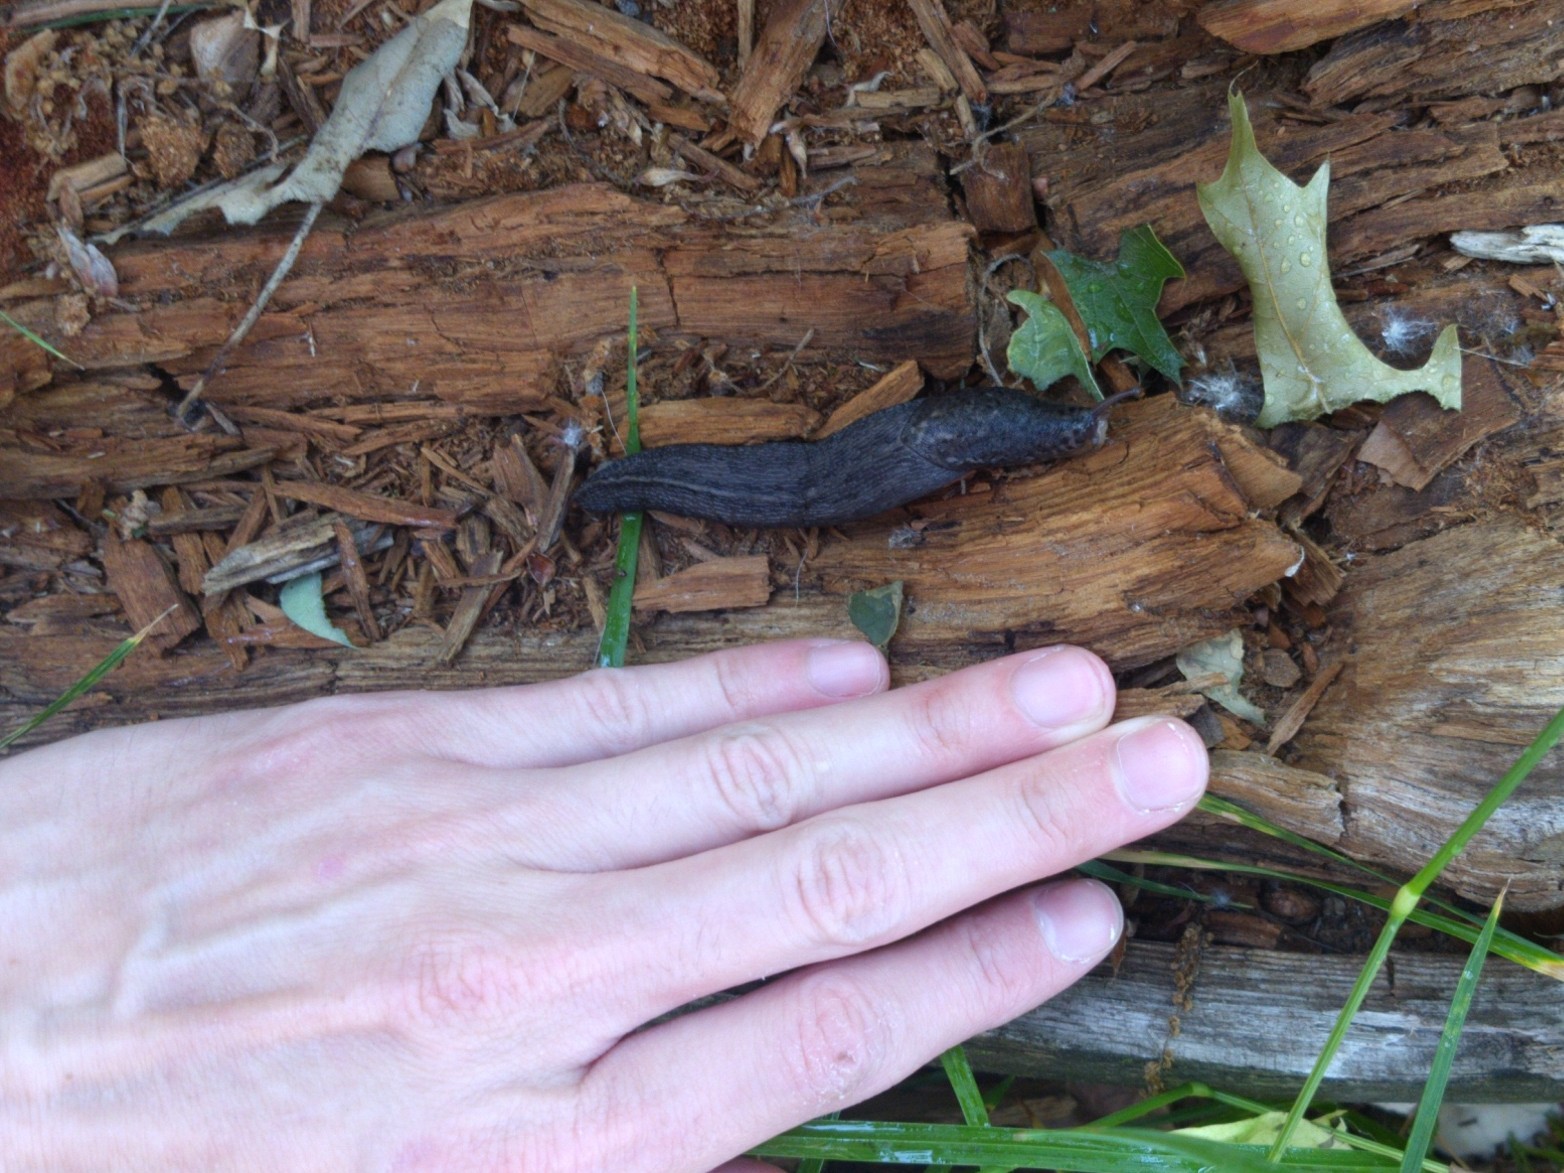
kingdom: Animalia
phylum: Mollusca
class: Gastropoda
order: Stylommatophora
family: Limacidae
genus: Limax
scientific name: Limax maximus
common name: Great grey slug
